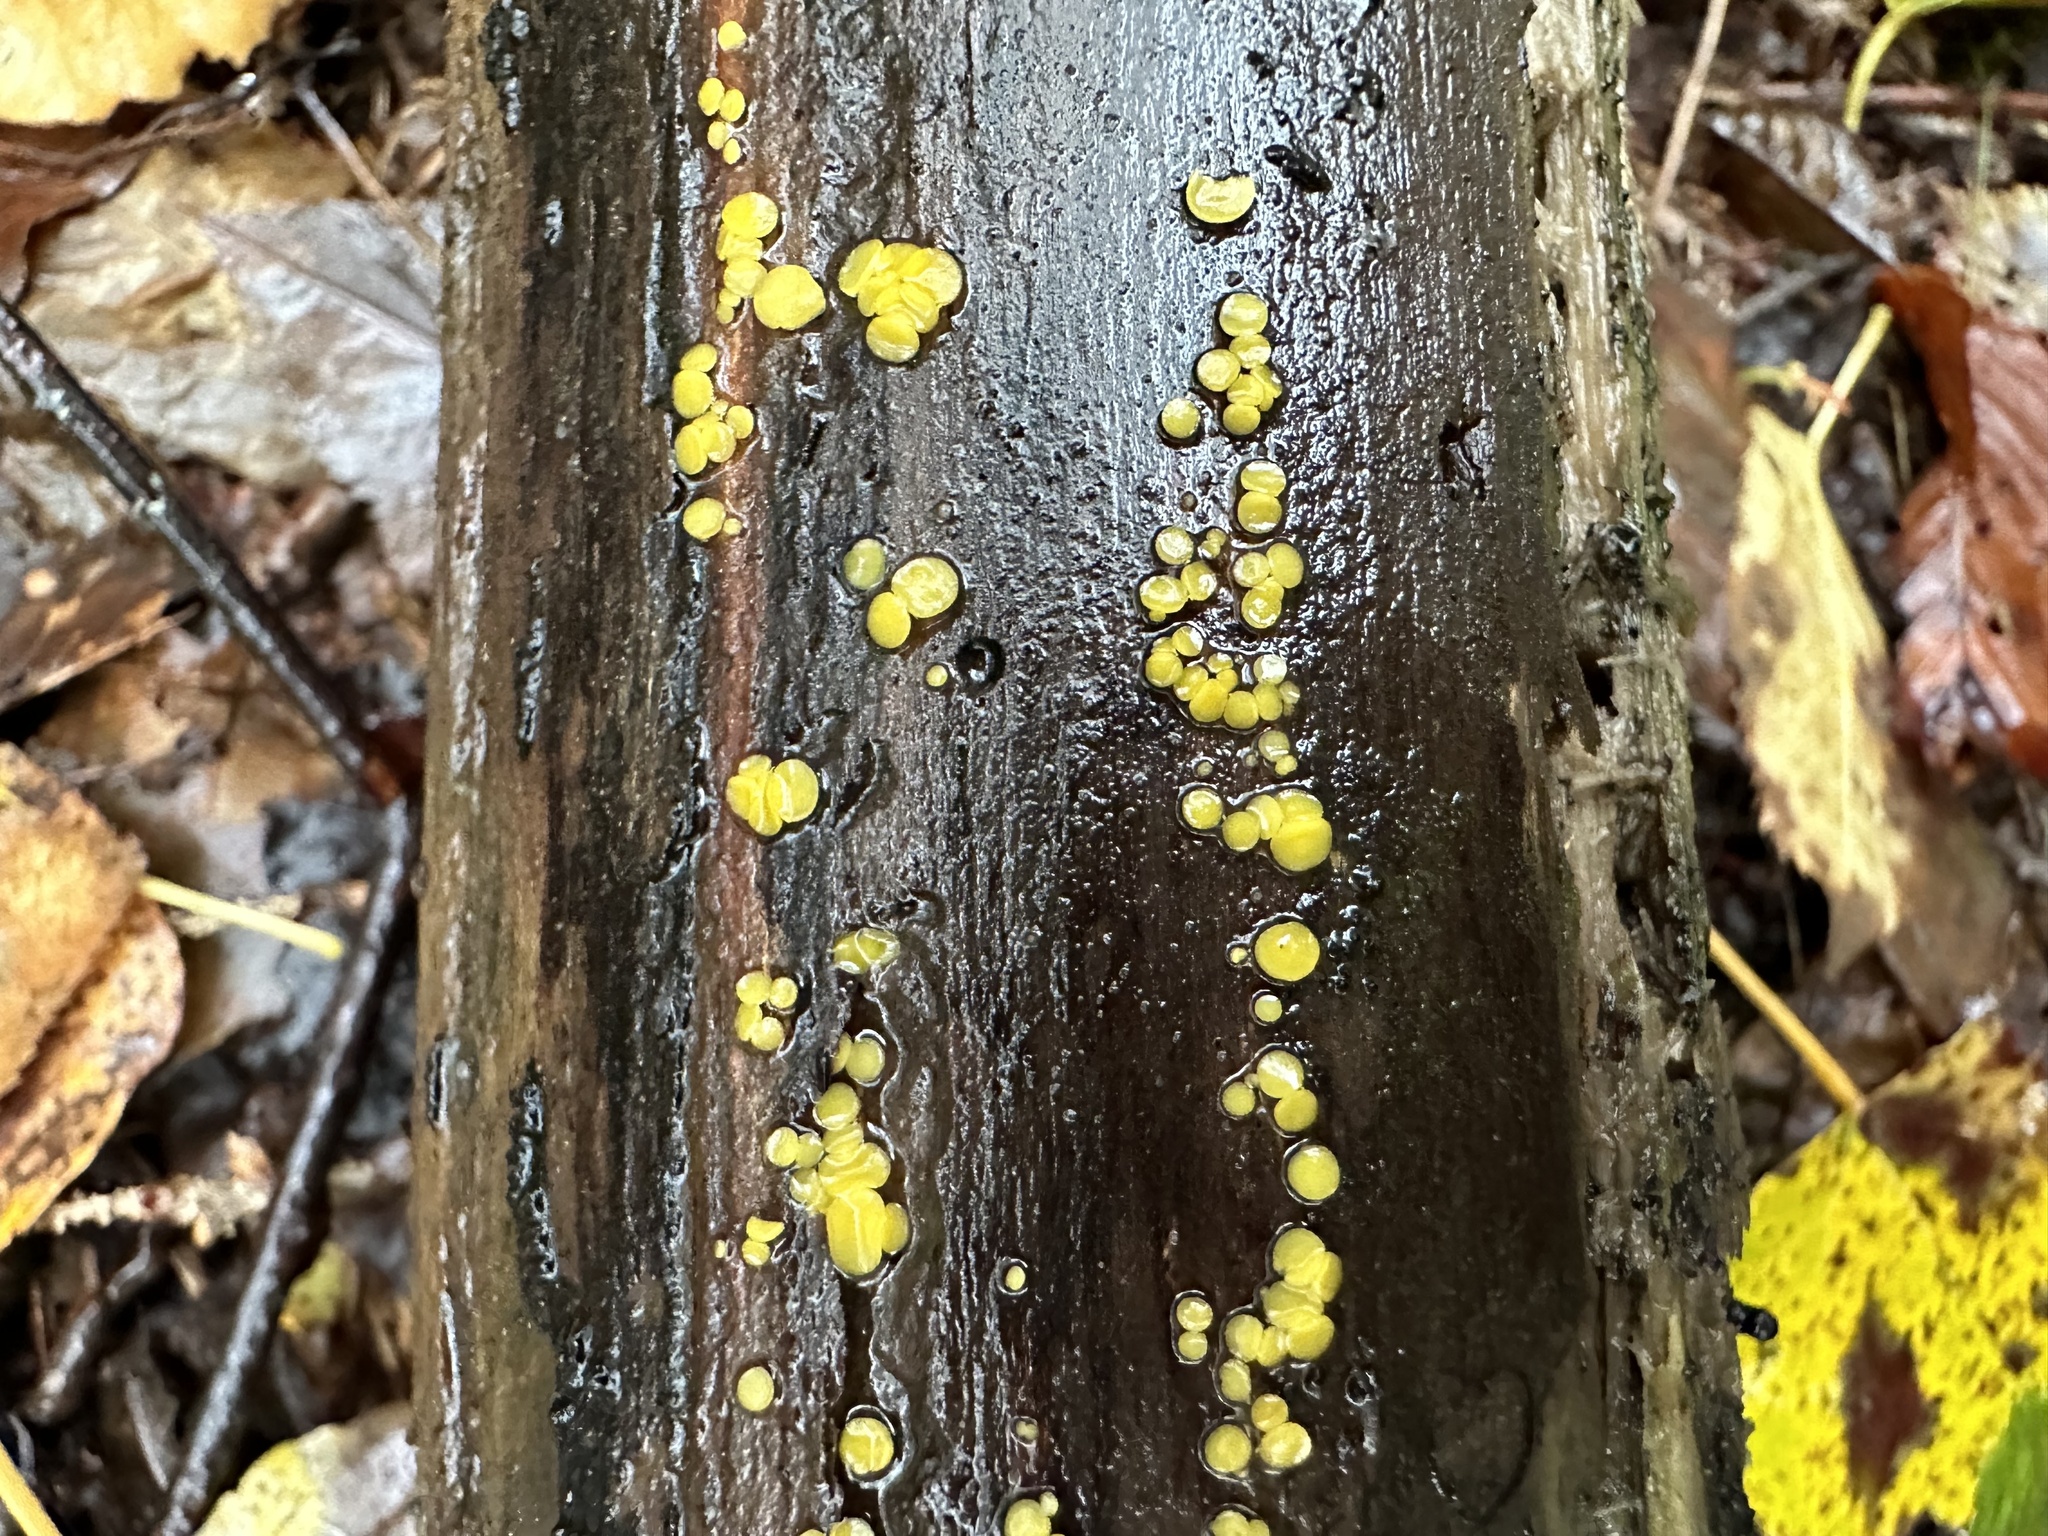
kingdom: Fungi
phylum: Ascomycota
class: Leotiomycetes
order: Helotiales
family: Pezizellaceae
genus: Calycina
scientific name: Calycina citrina
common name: Yellow fairy cups
